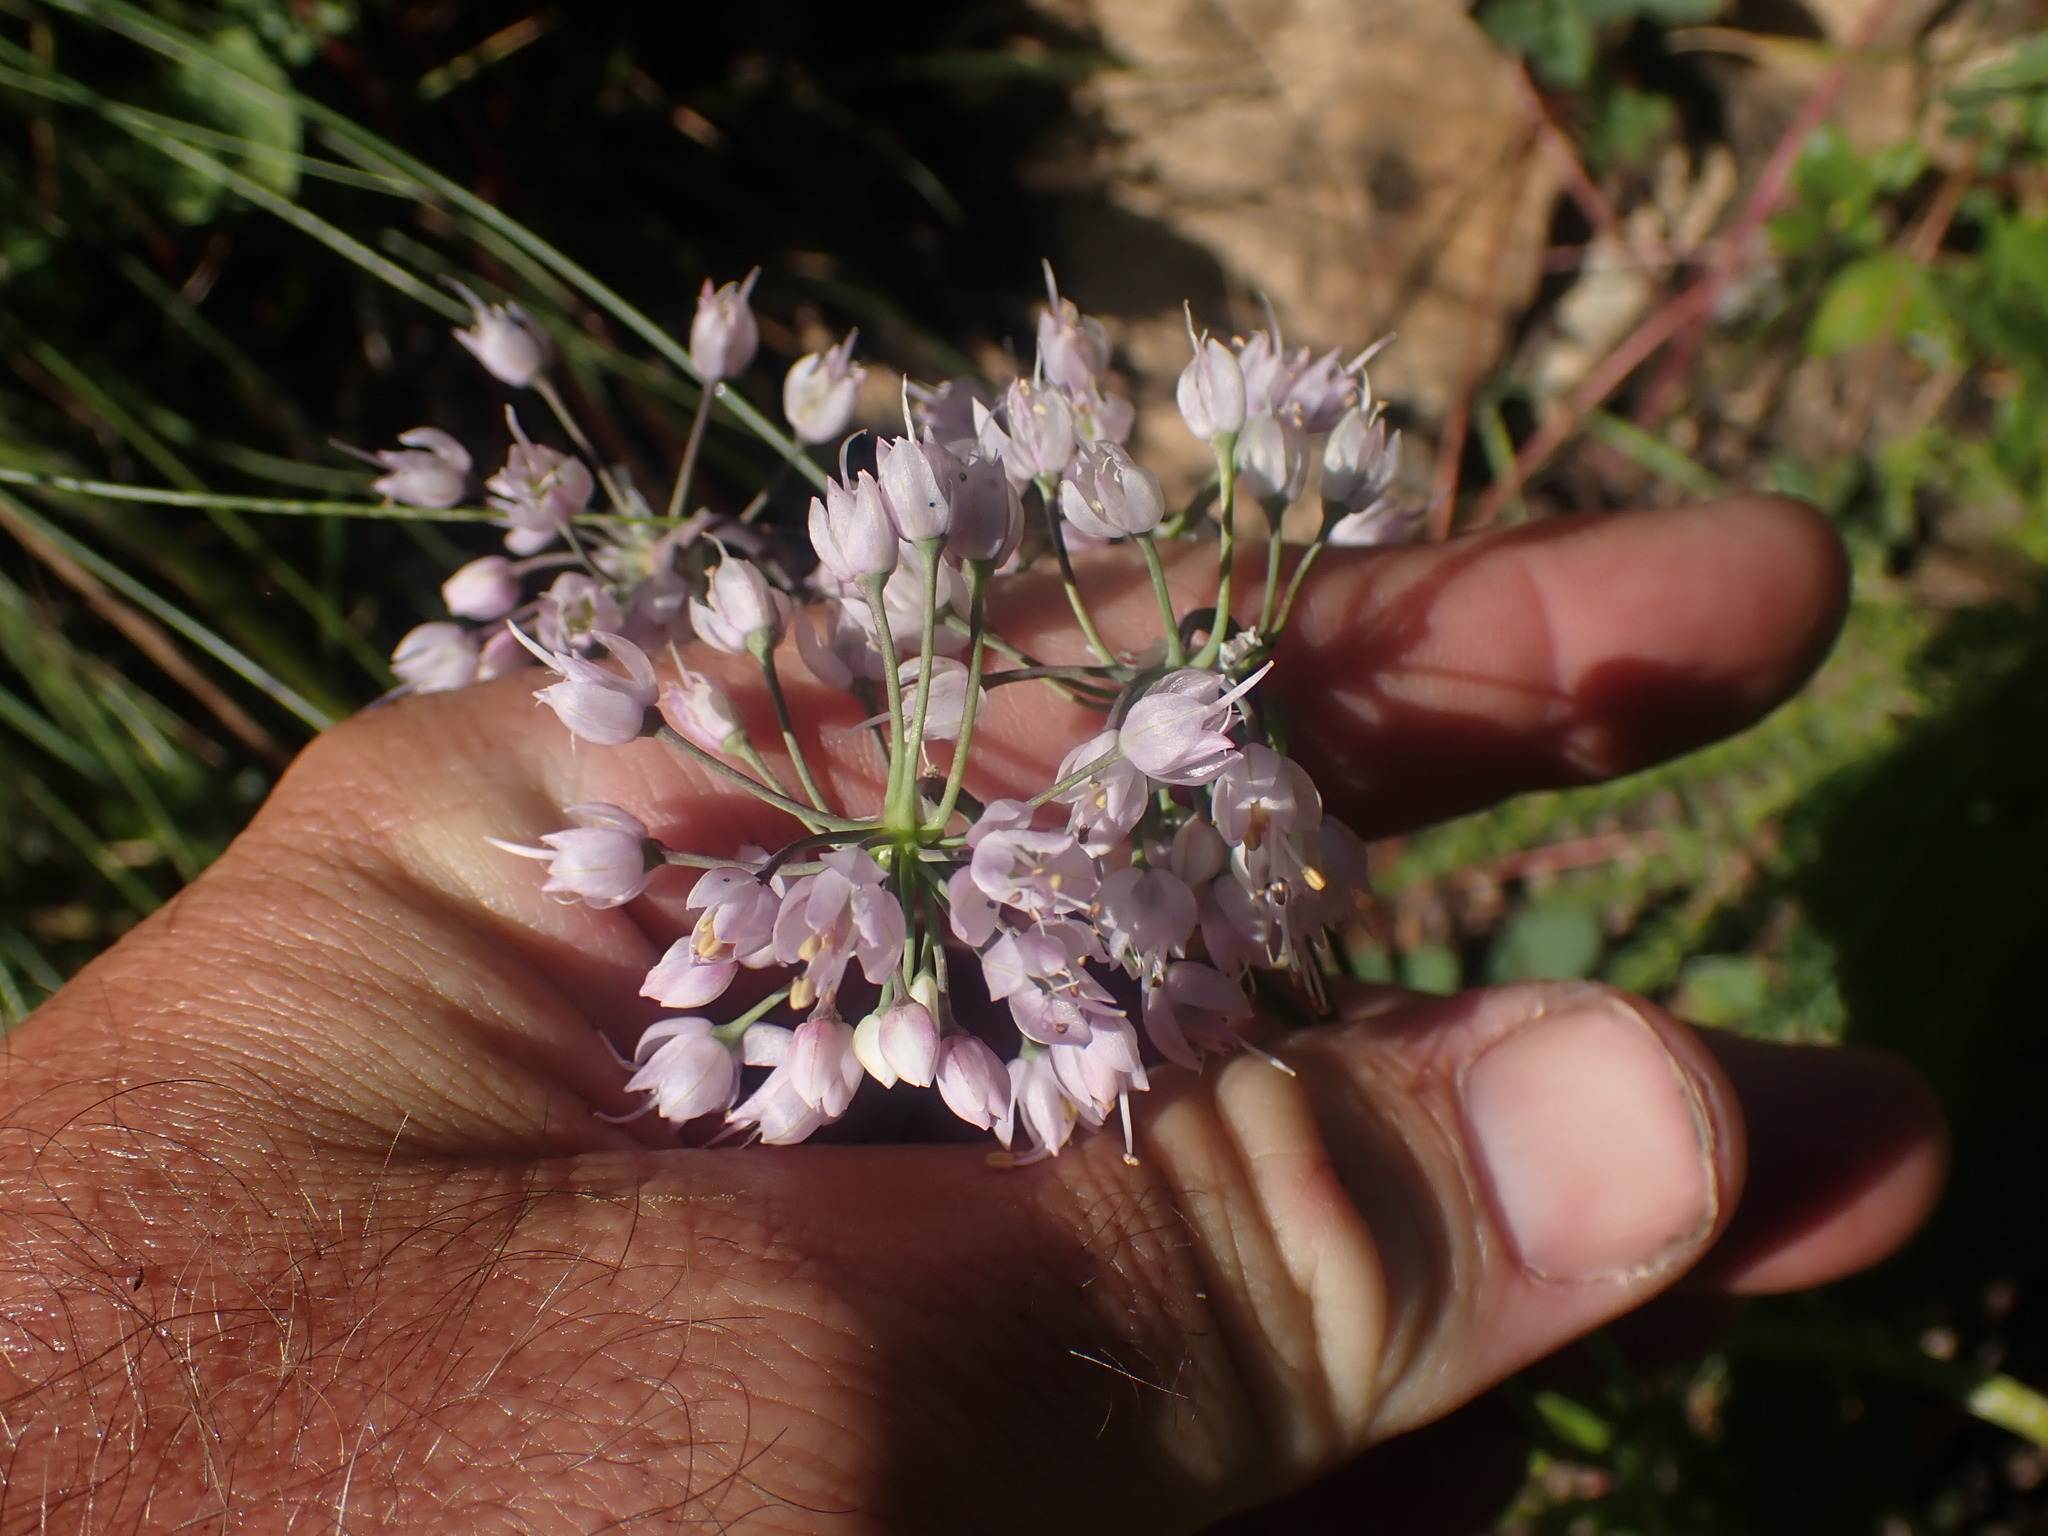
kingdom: Plantae
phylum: Tracheophyta
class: Liliopsida
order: Asparagales
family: Amaryllidaceae
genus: Allium
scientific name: Allium cernuum
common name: Nodding onion
